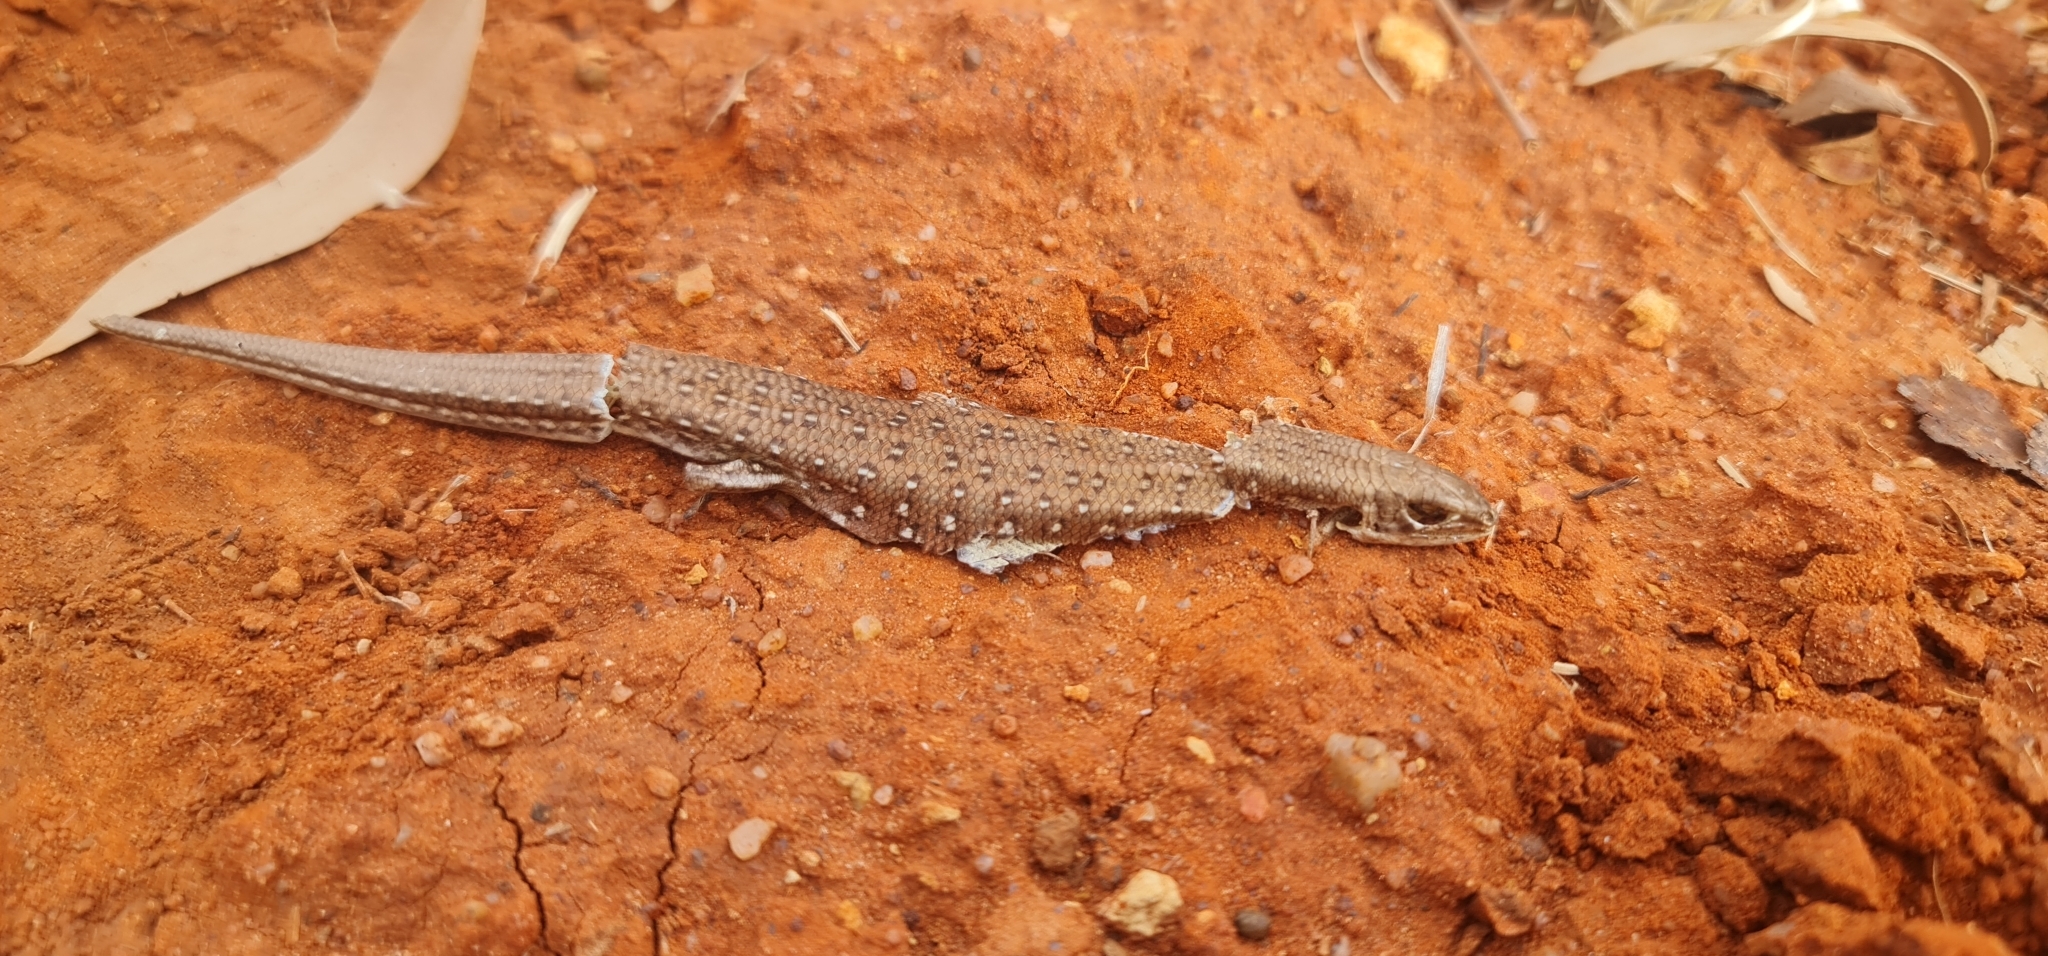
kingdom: Animalia
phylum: Chordata
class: Squamata
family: Scincidae
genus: Ctenotus
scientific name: Ctenotus pantherinus
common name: Leopard ctenotus
